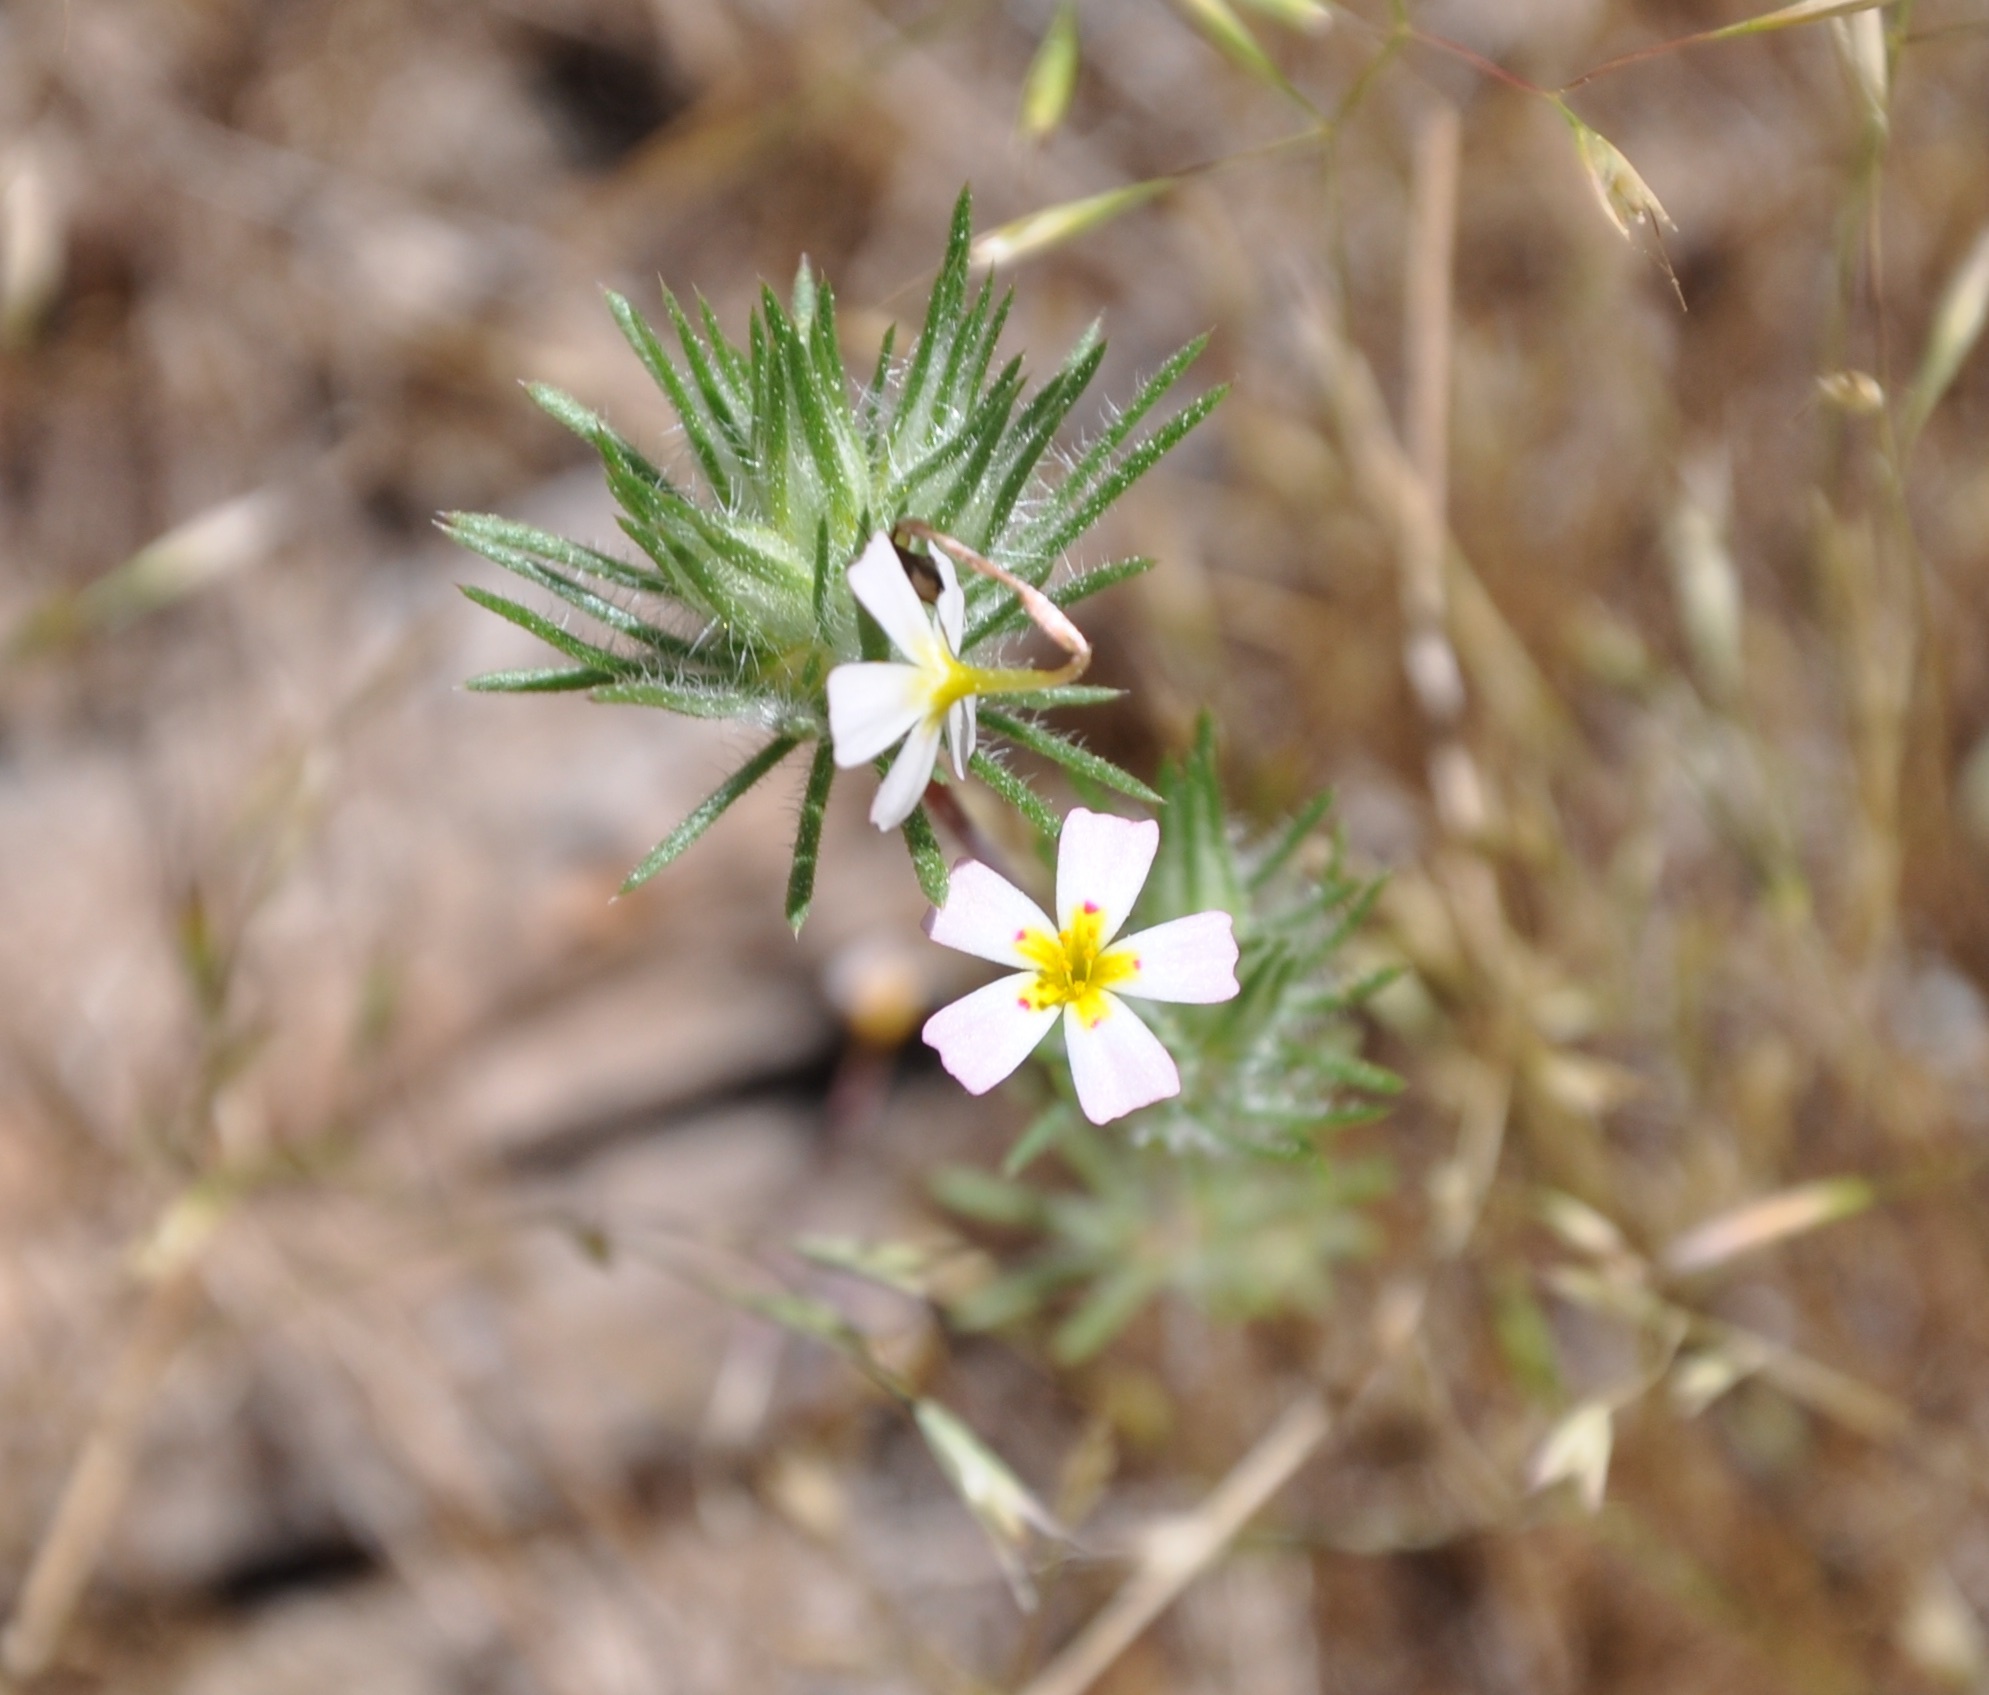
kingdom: Plantae
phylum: Tracheophyta
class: Magnoliopsida
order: Ericales
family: Polemoniaceae
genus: Leptosiphon
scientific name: Leptosiphon ciliatus
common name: Whiskerbrush
